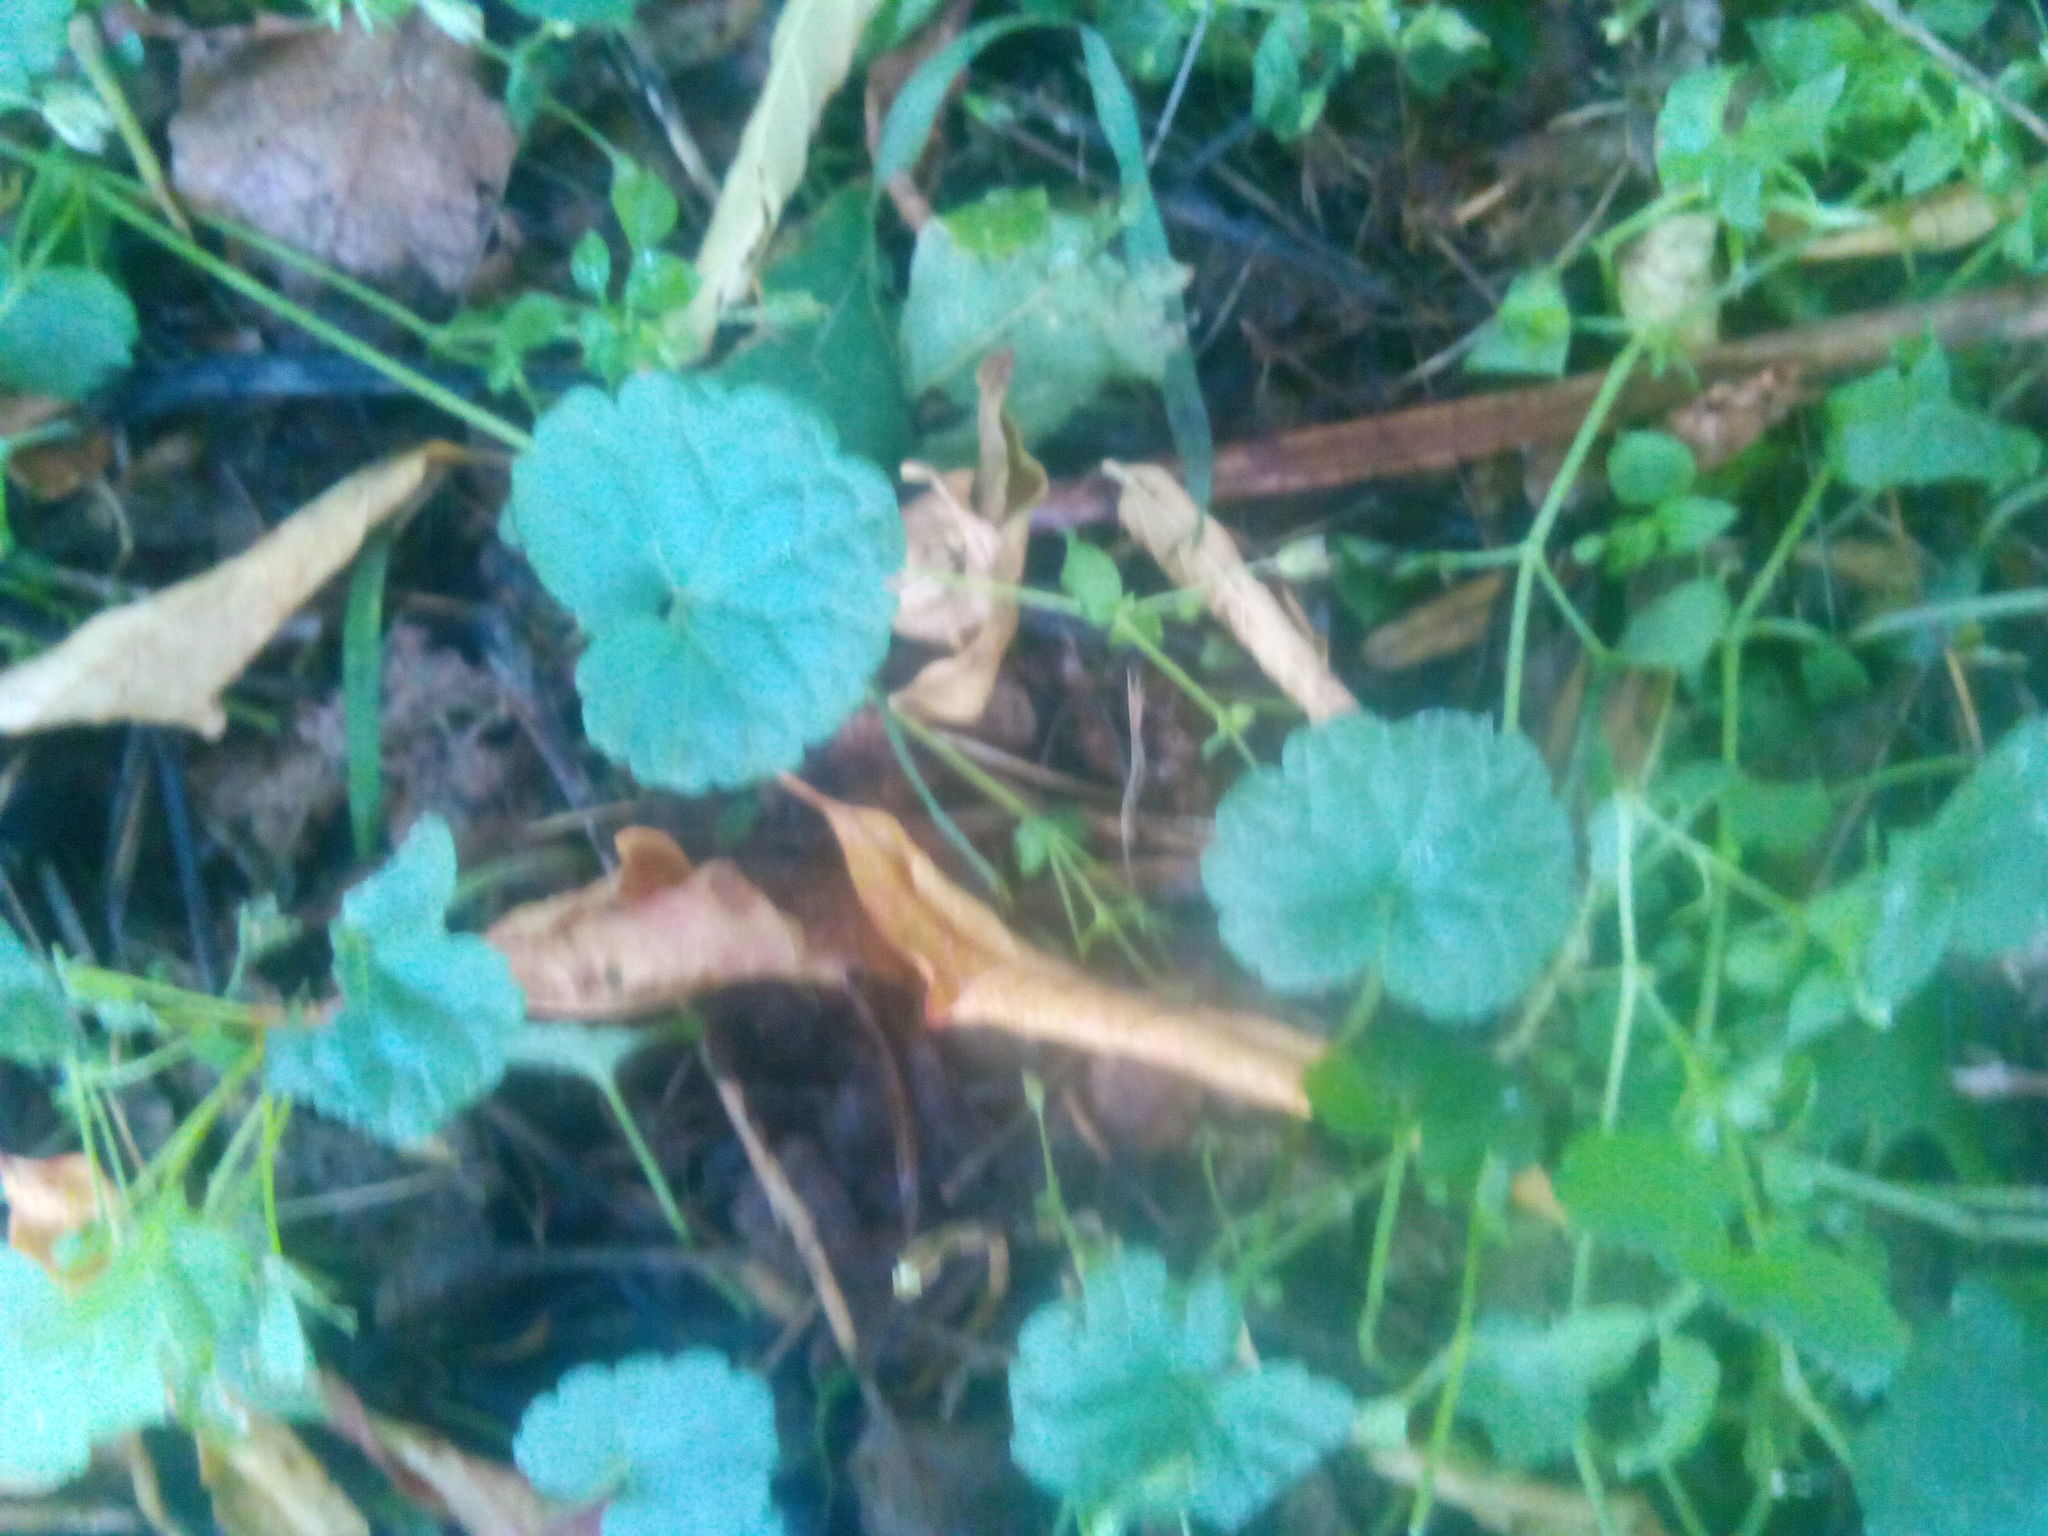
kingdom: Plantae
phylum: Tracheophyta
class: Magnoliopsida
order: Lamiales
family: Lamiaceae
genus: Glechoma
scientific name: Glechoma hederacea
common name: Ground ivy
